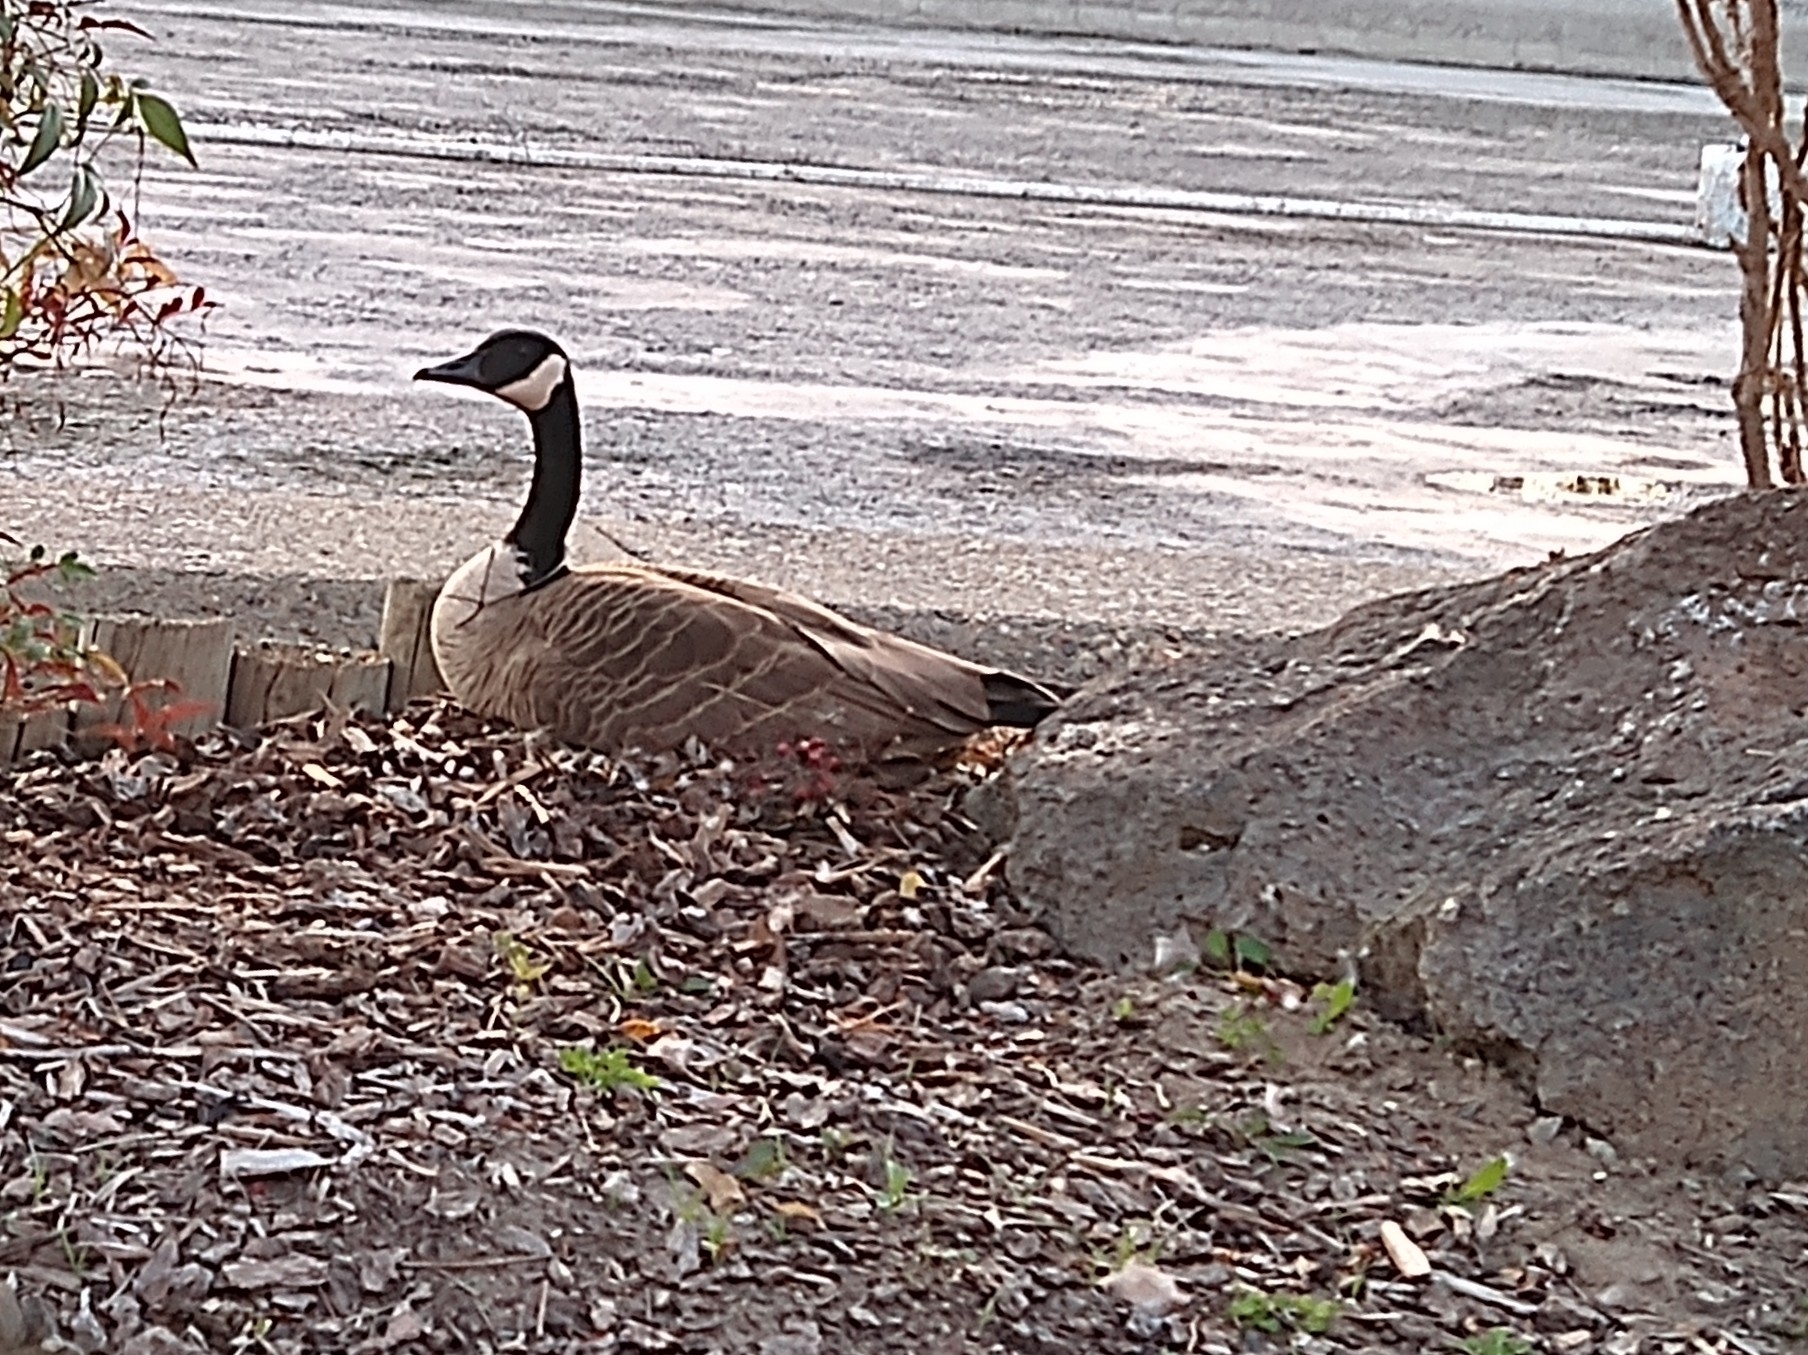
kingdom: Animalia
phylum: Chordata
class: Aves
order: Anseriformes
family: Anatidae
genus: Branta
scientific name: Branta canadensis
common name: Canada goose
